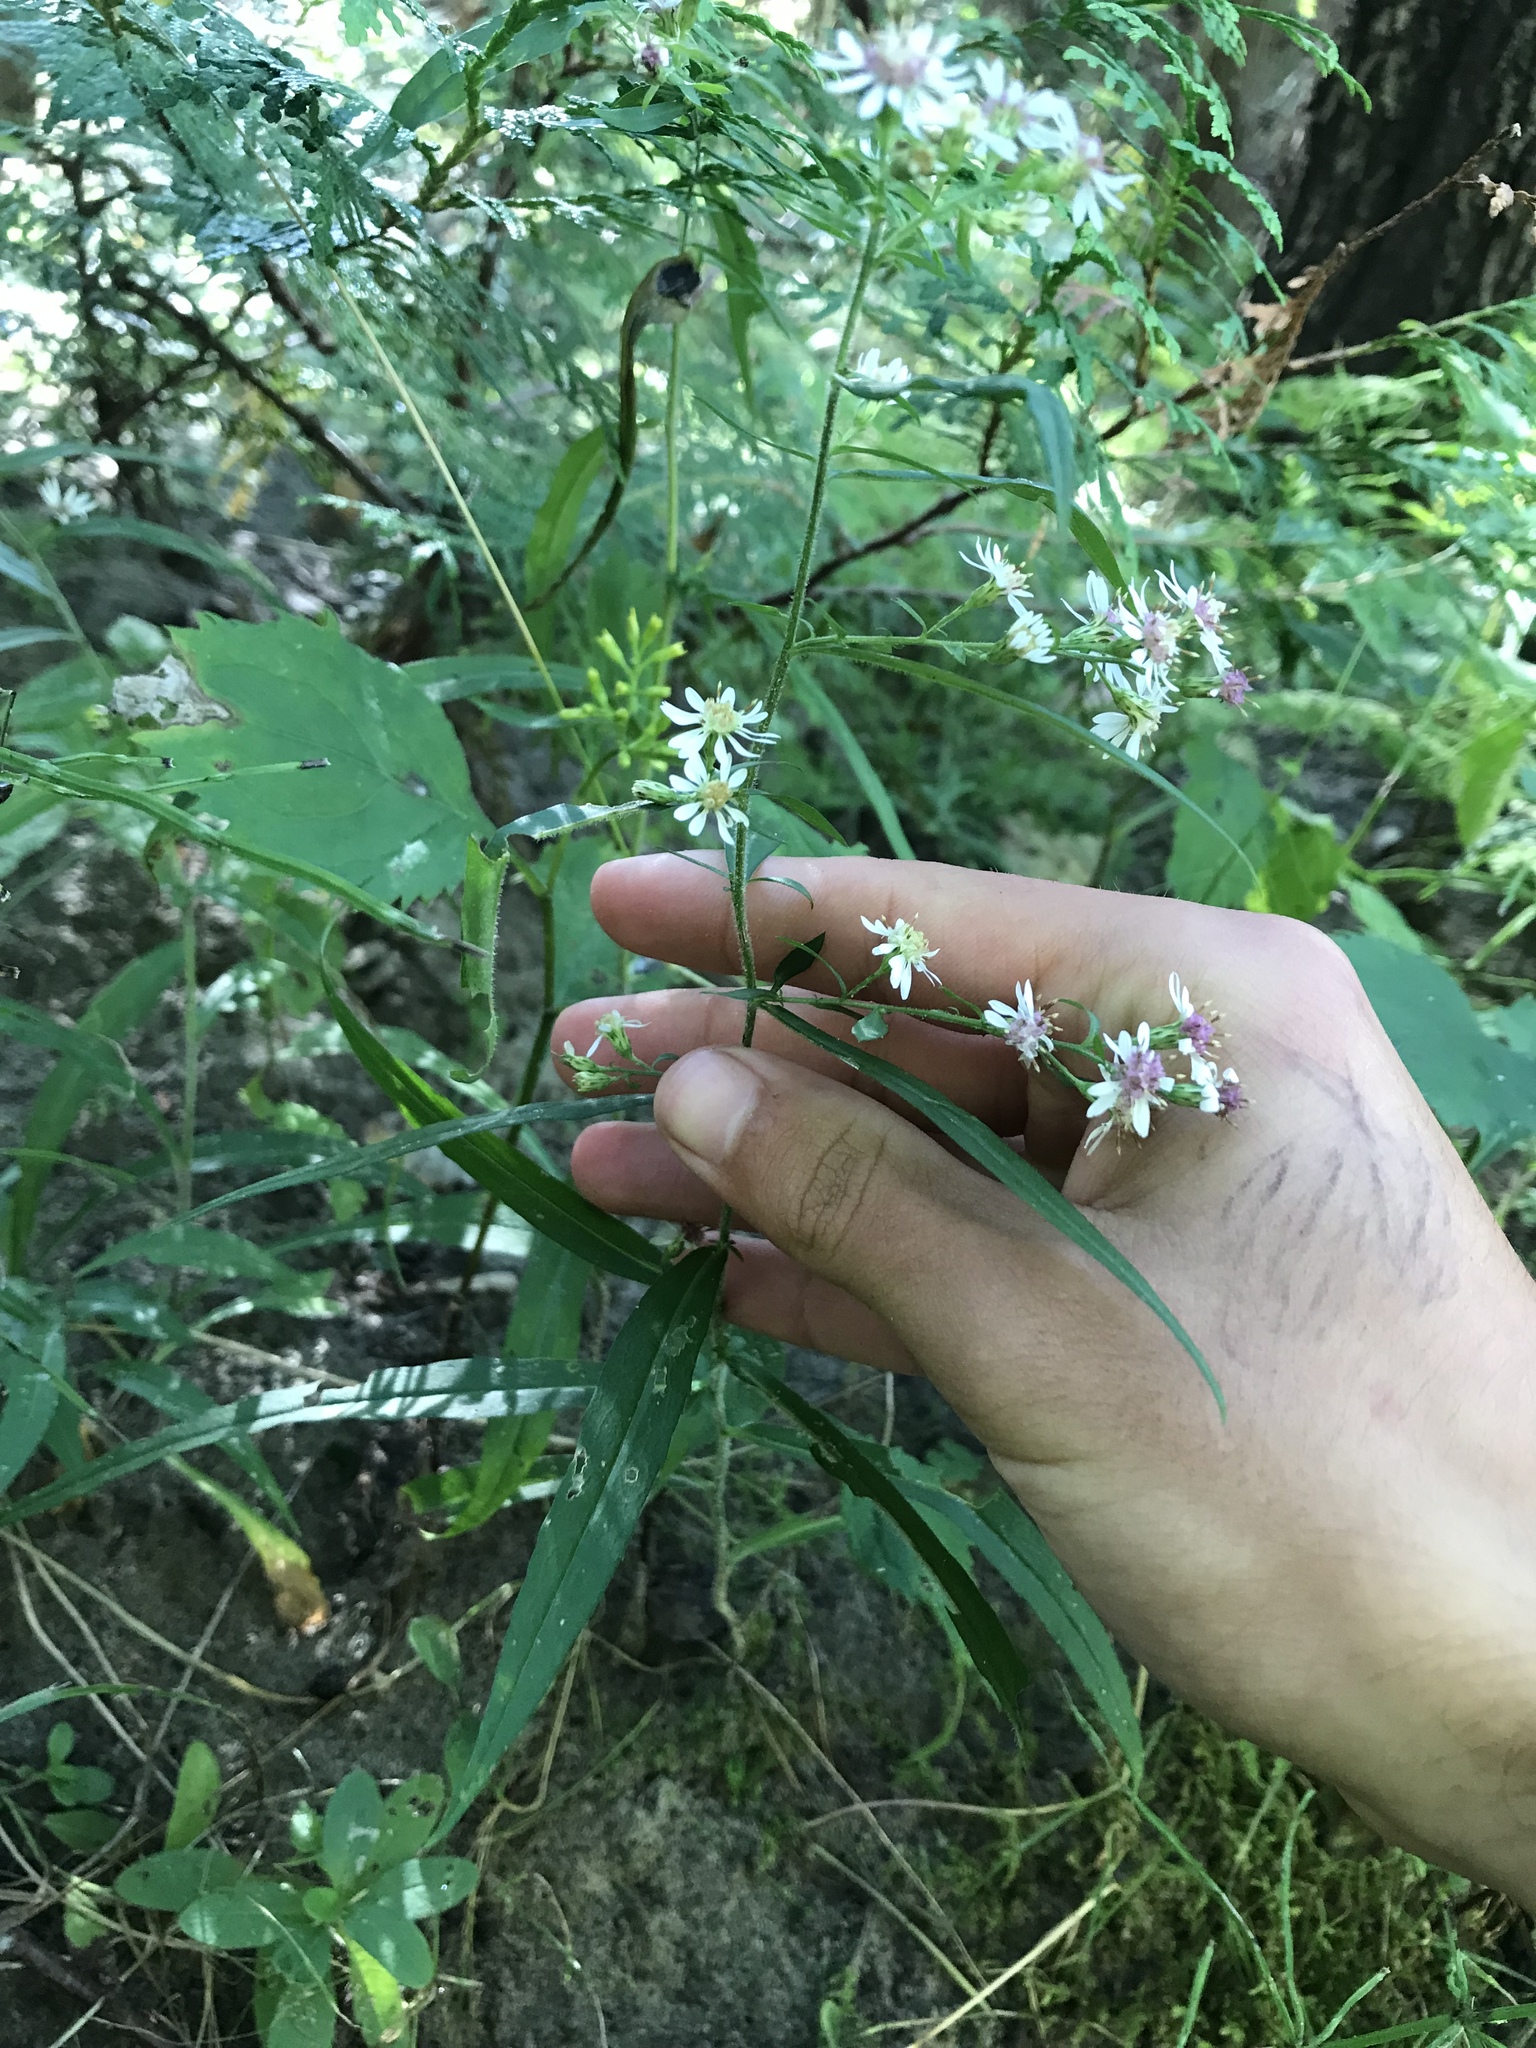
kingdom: Plantae
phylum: Tracheophyta
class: Magnoliopsida
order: Asterales
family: Asteraceae
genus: Symphyotrichum
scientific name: Symphyotrichum lateriflorum
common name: Calico aster
